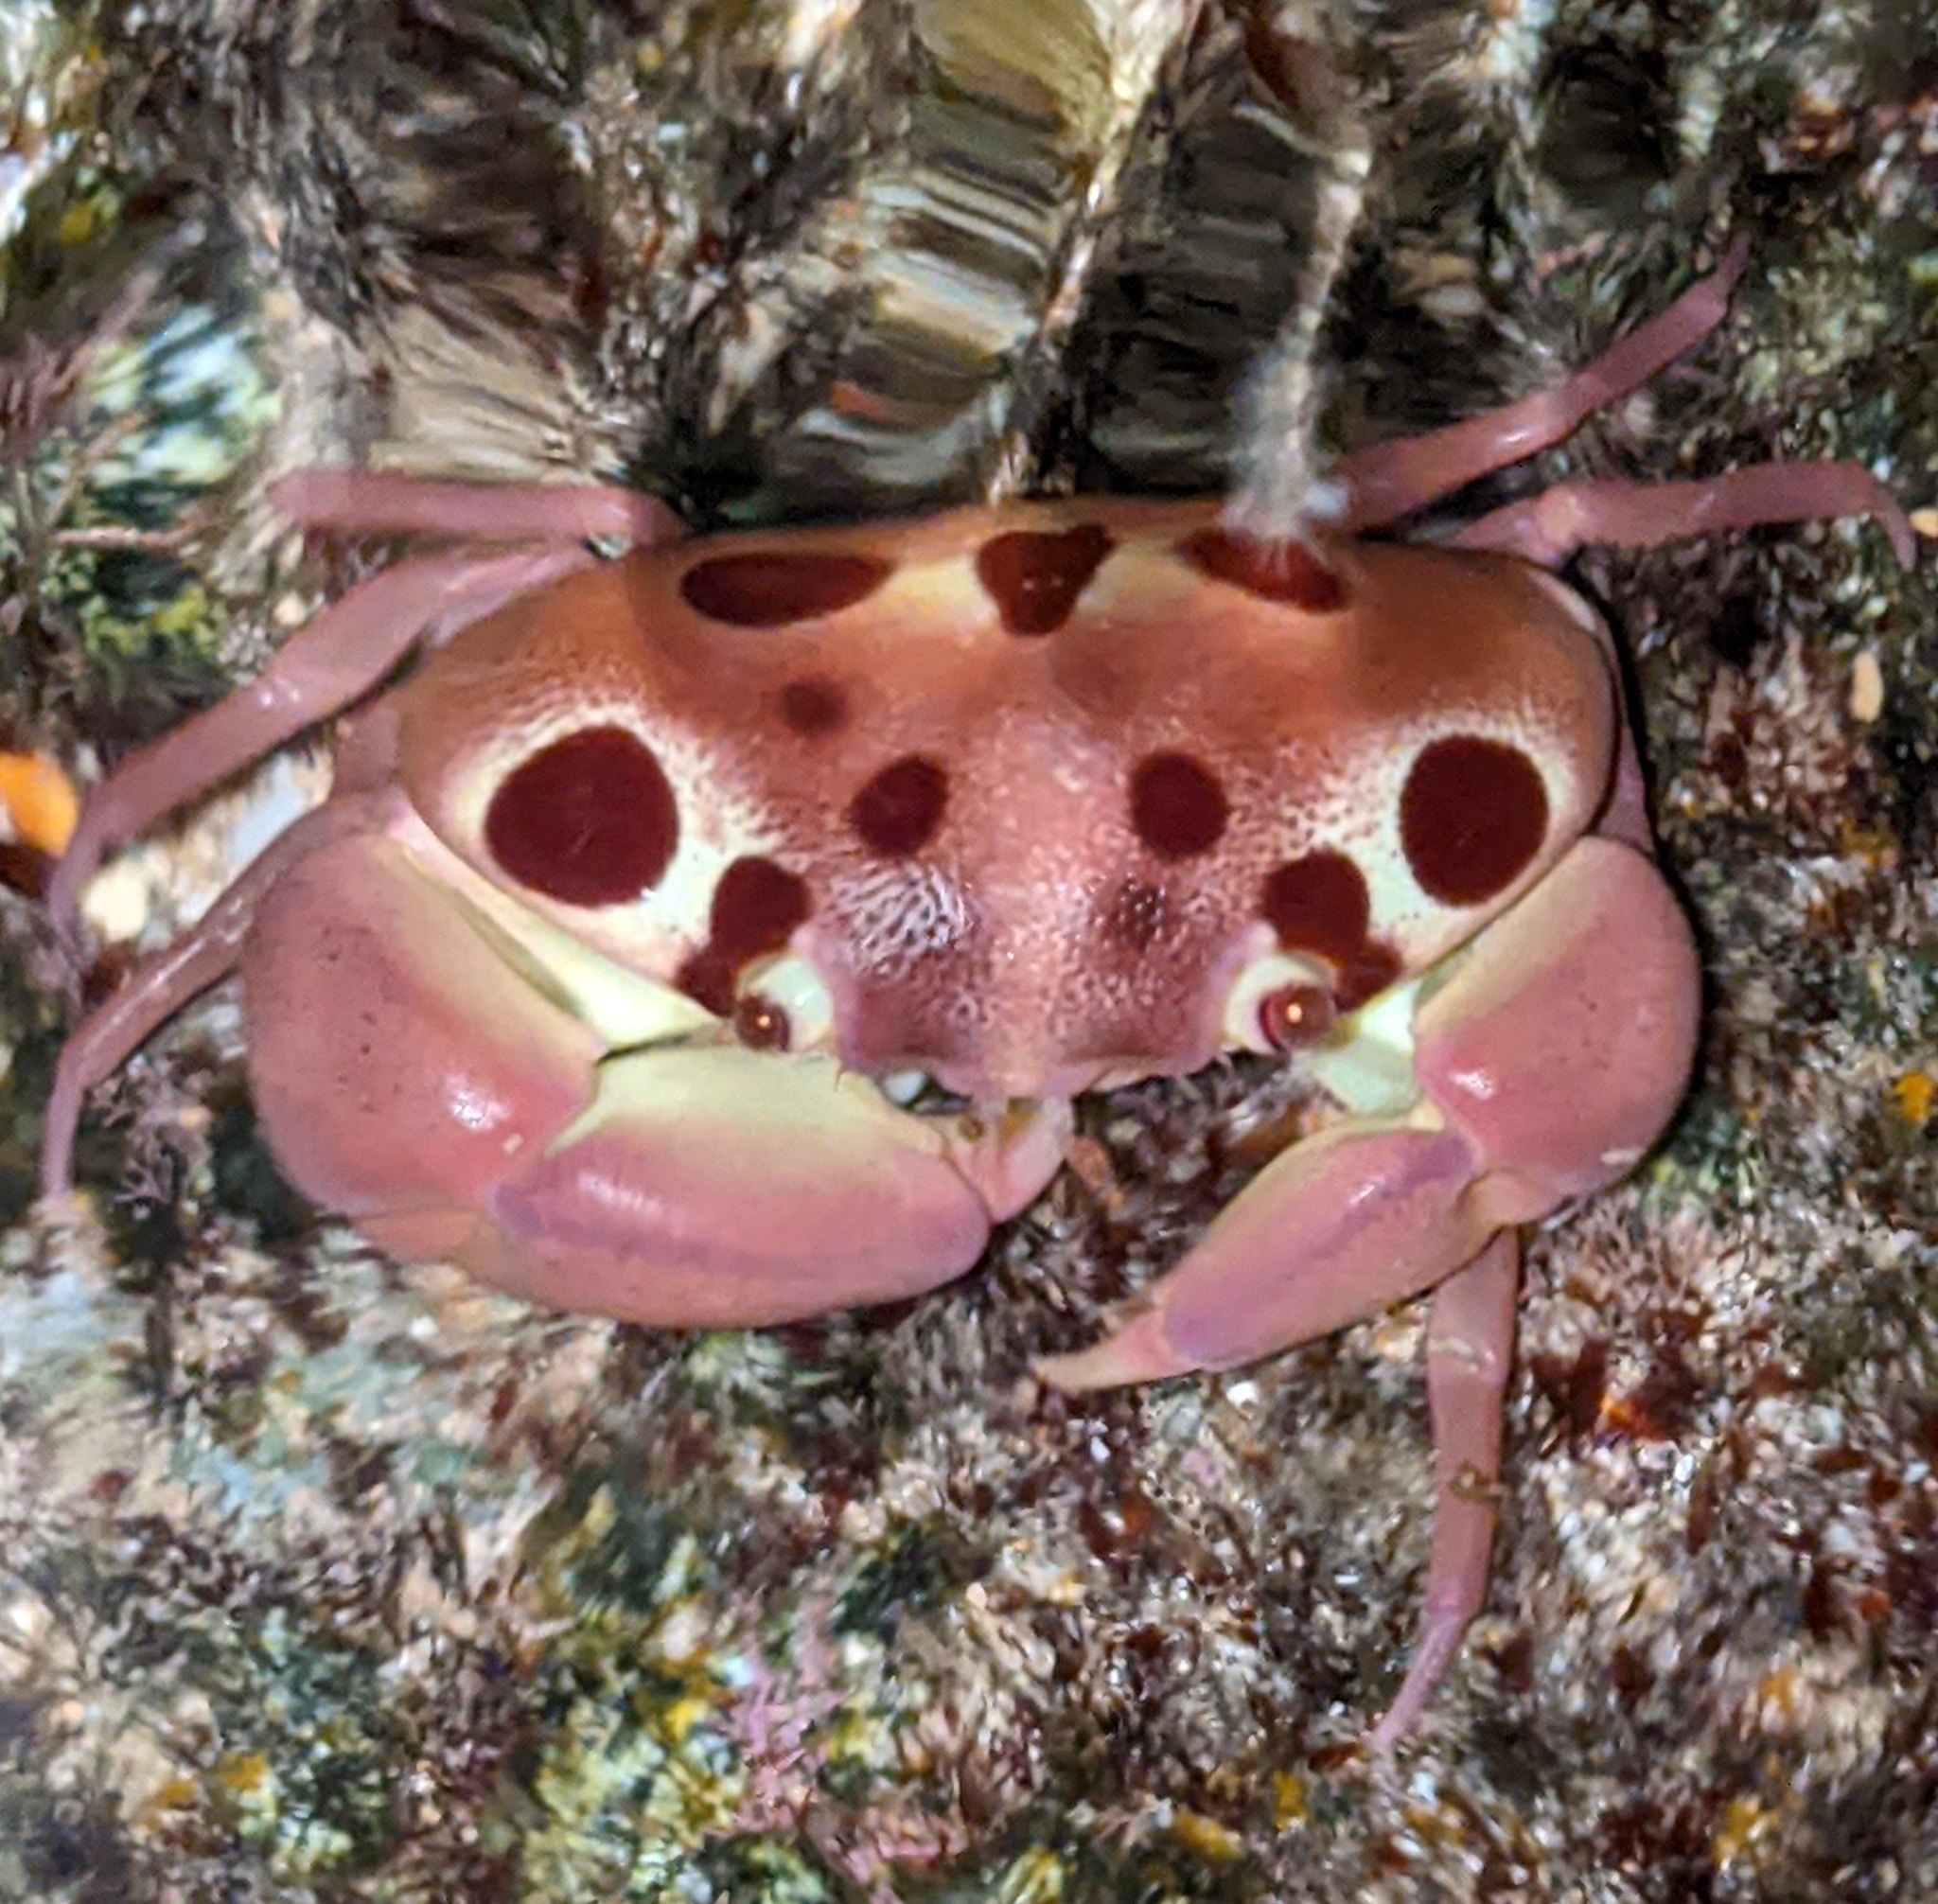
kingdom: Animalia
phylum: Arthropoda
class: Malacostraca
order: Decapoda
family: Carpiliidae
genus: Carpilius
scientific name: Carpilius maculatus
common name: Spotted reef crab
